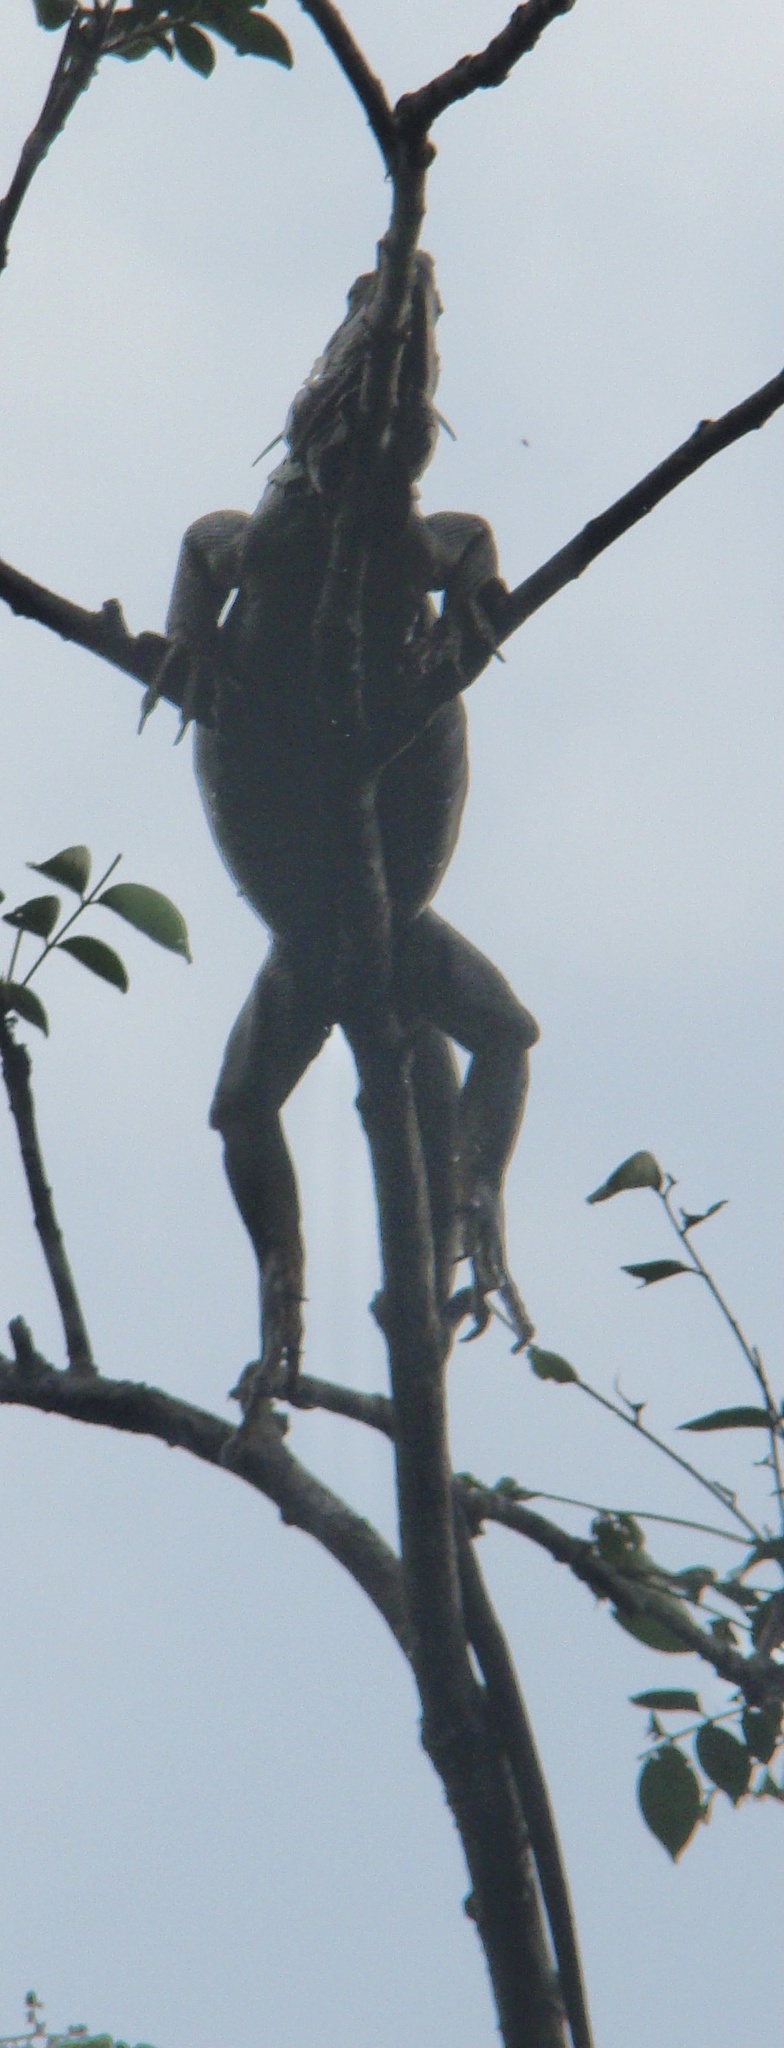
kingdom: Animalia
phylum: Chordata
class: Squamata
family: Iguanidae
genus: Iguana
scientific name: Iguana iguana
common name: Green iguana
